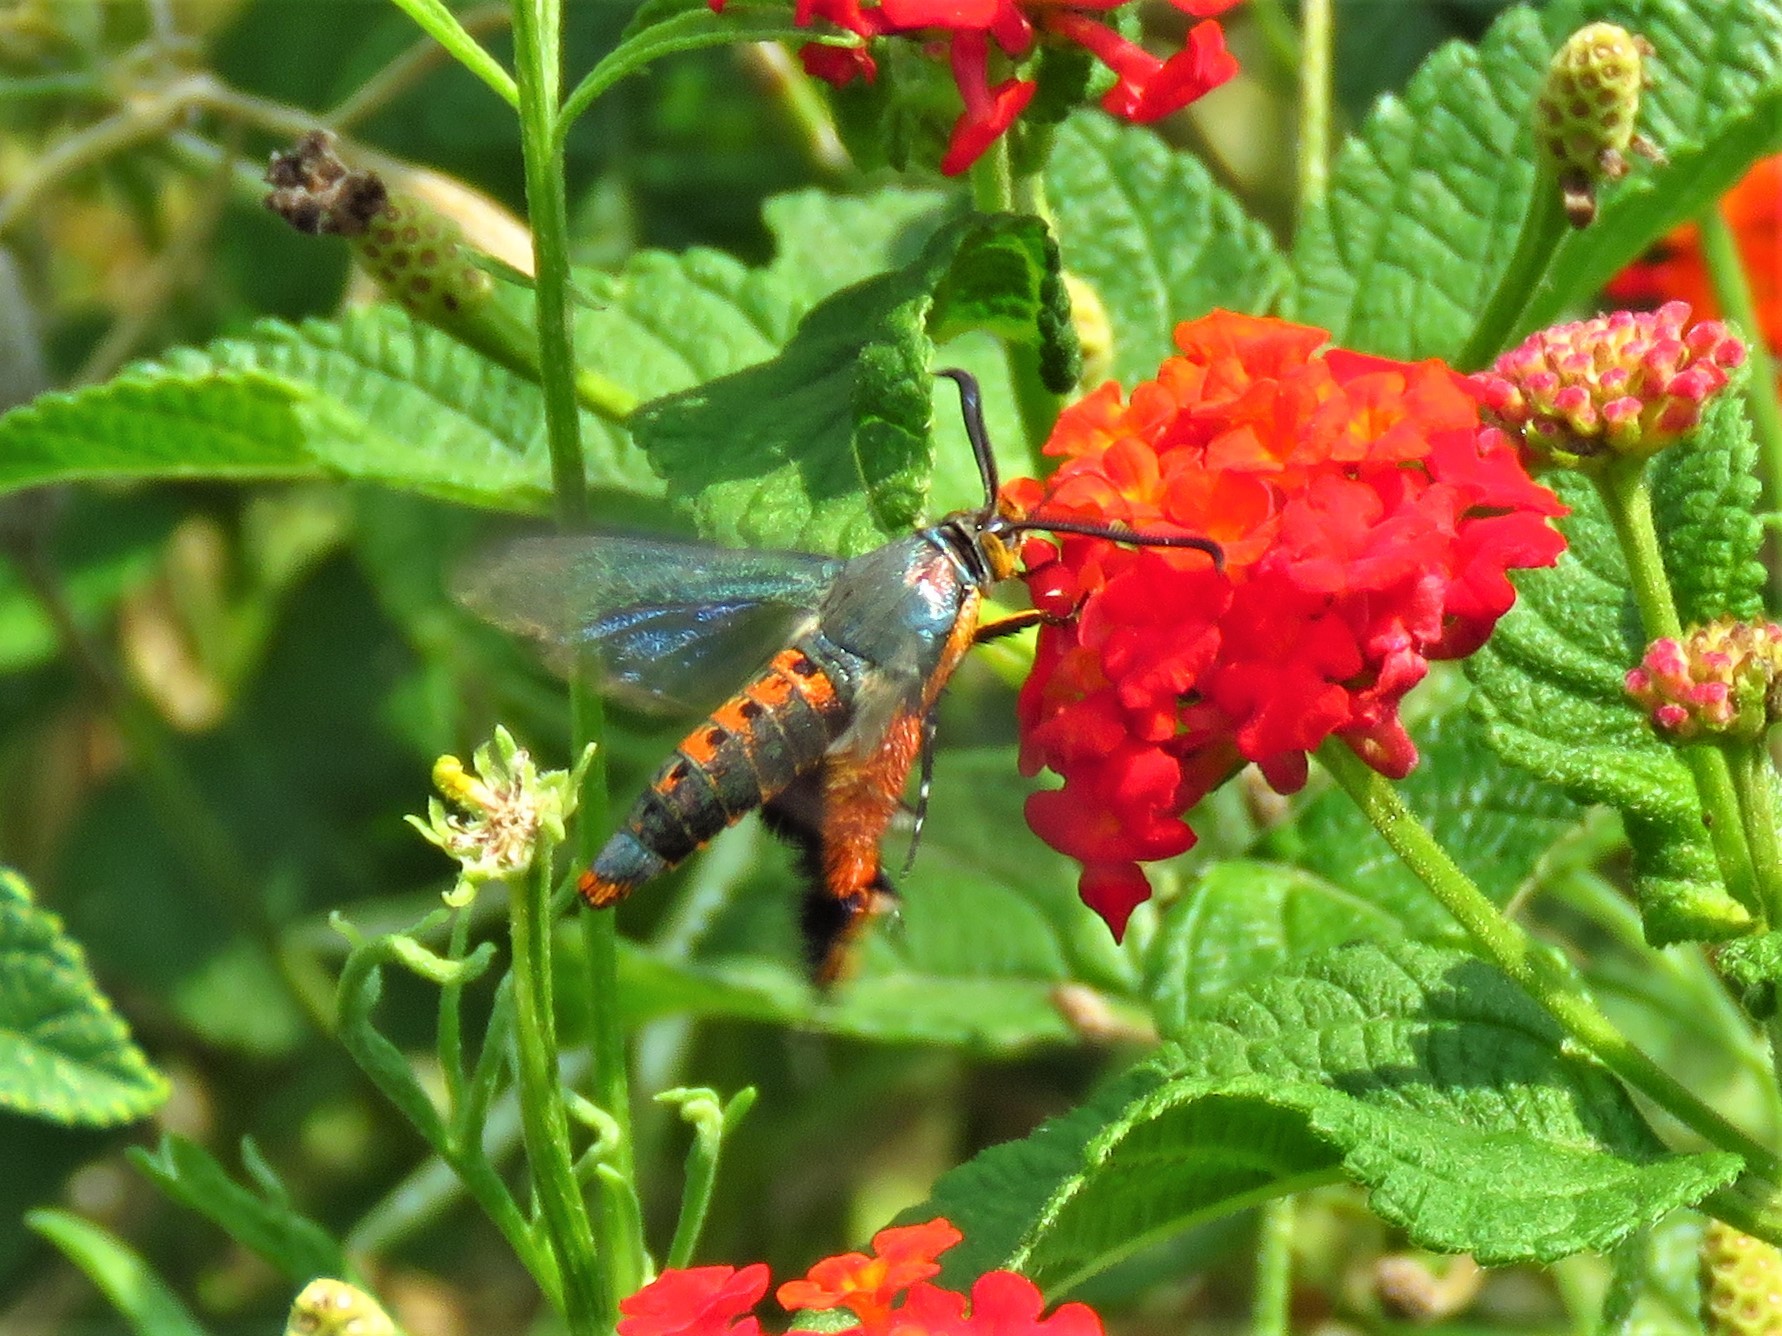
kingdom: Animalia
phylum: Arthropoda
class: Insecta
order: Lepidoptera
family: Sesiidae
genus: Eichlinia
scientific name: Eichlinia calabaza
